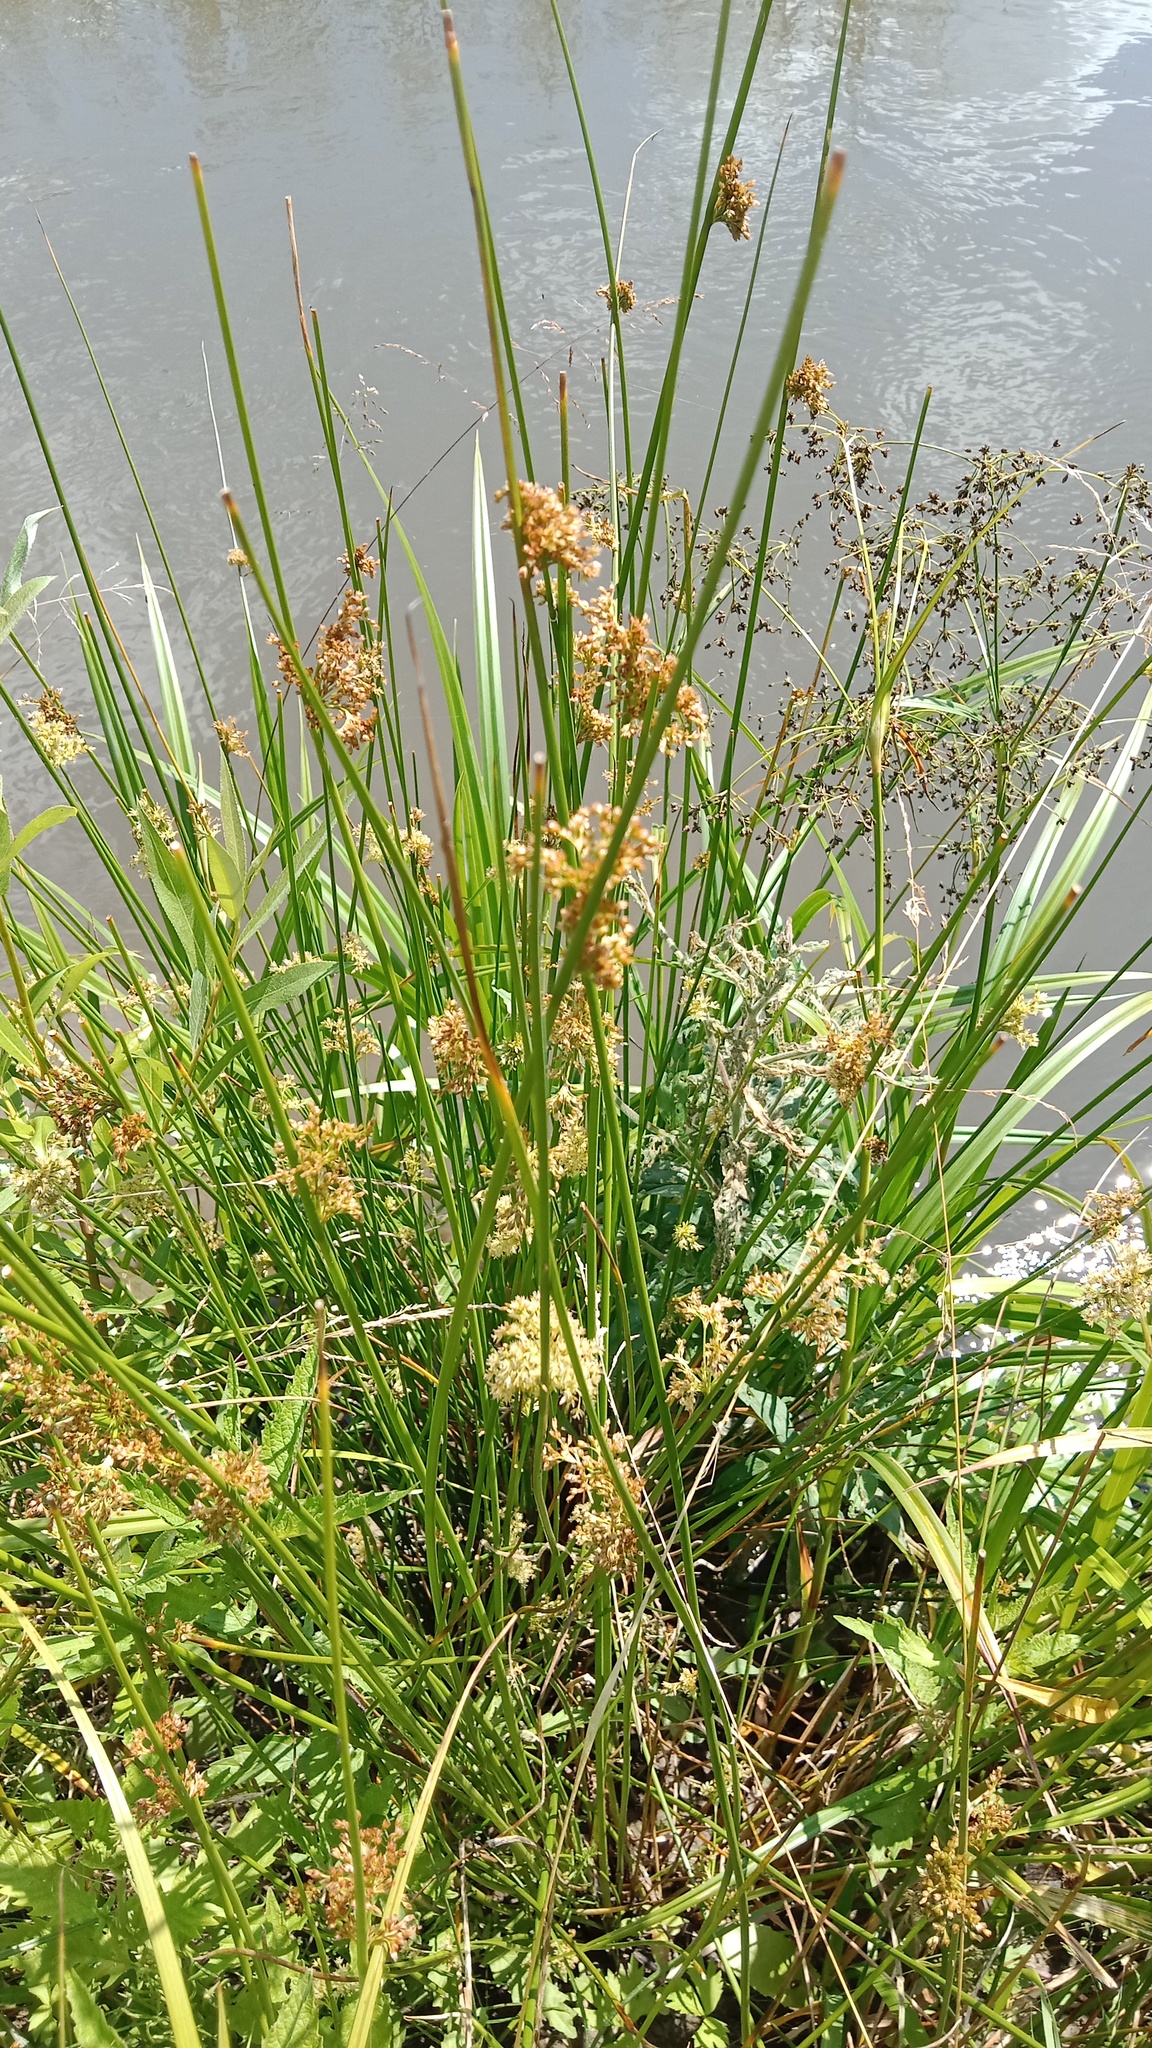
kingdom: Plantae
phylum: Tracheophyta
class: Liliopsida
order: Poales
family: Juncaceae
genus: Juncus
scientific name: Juncus effusus
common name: Soft rush
